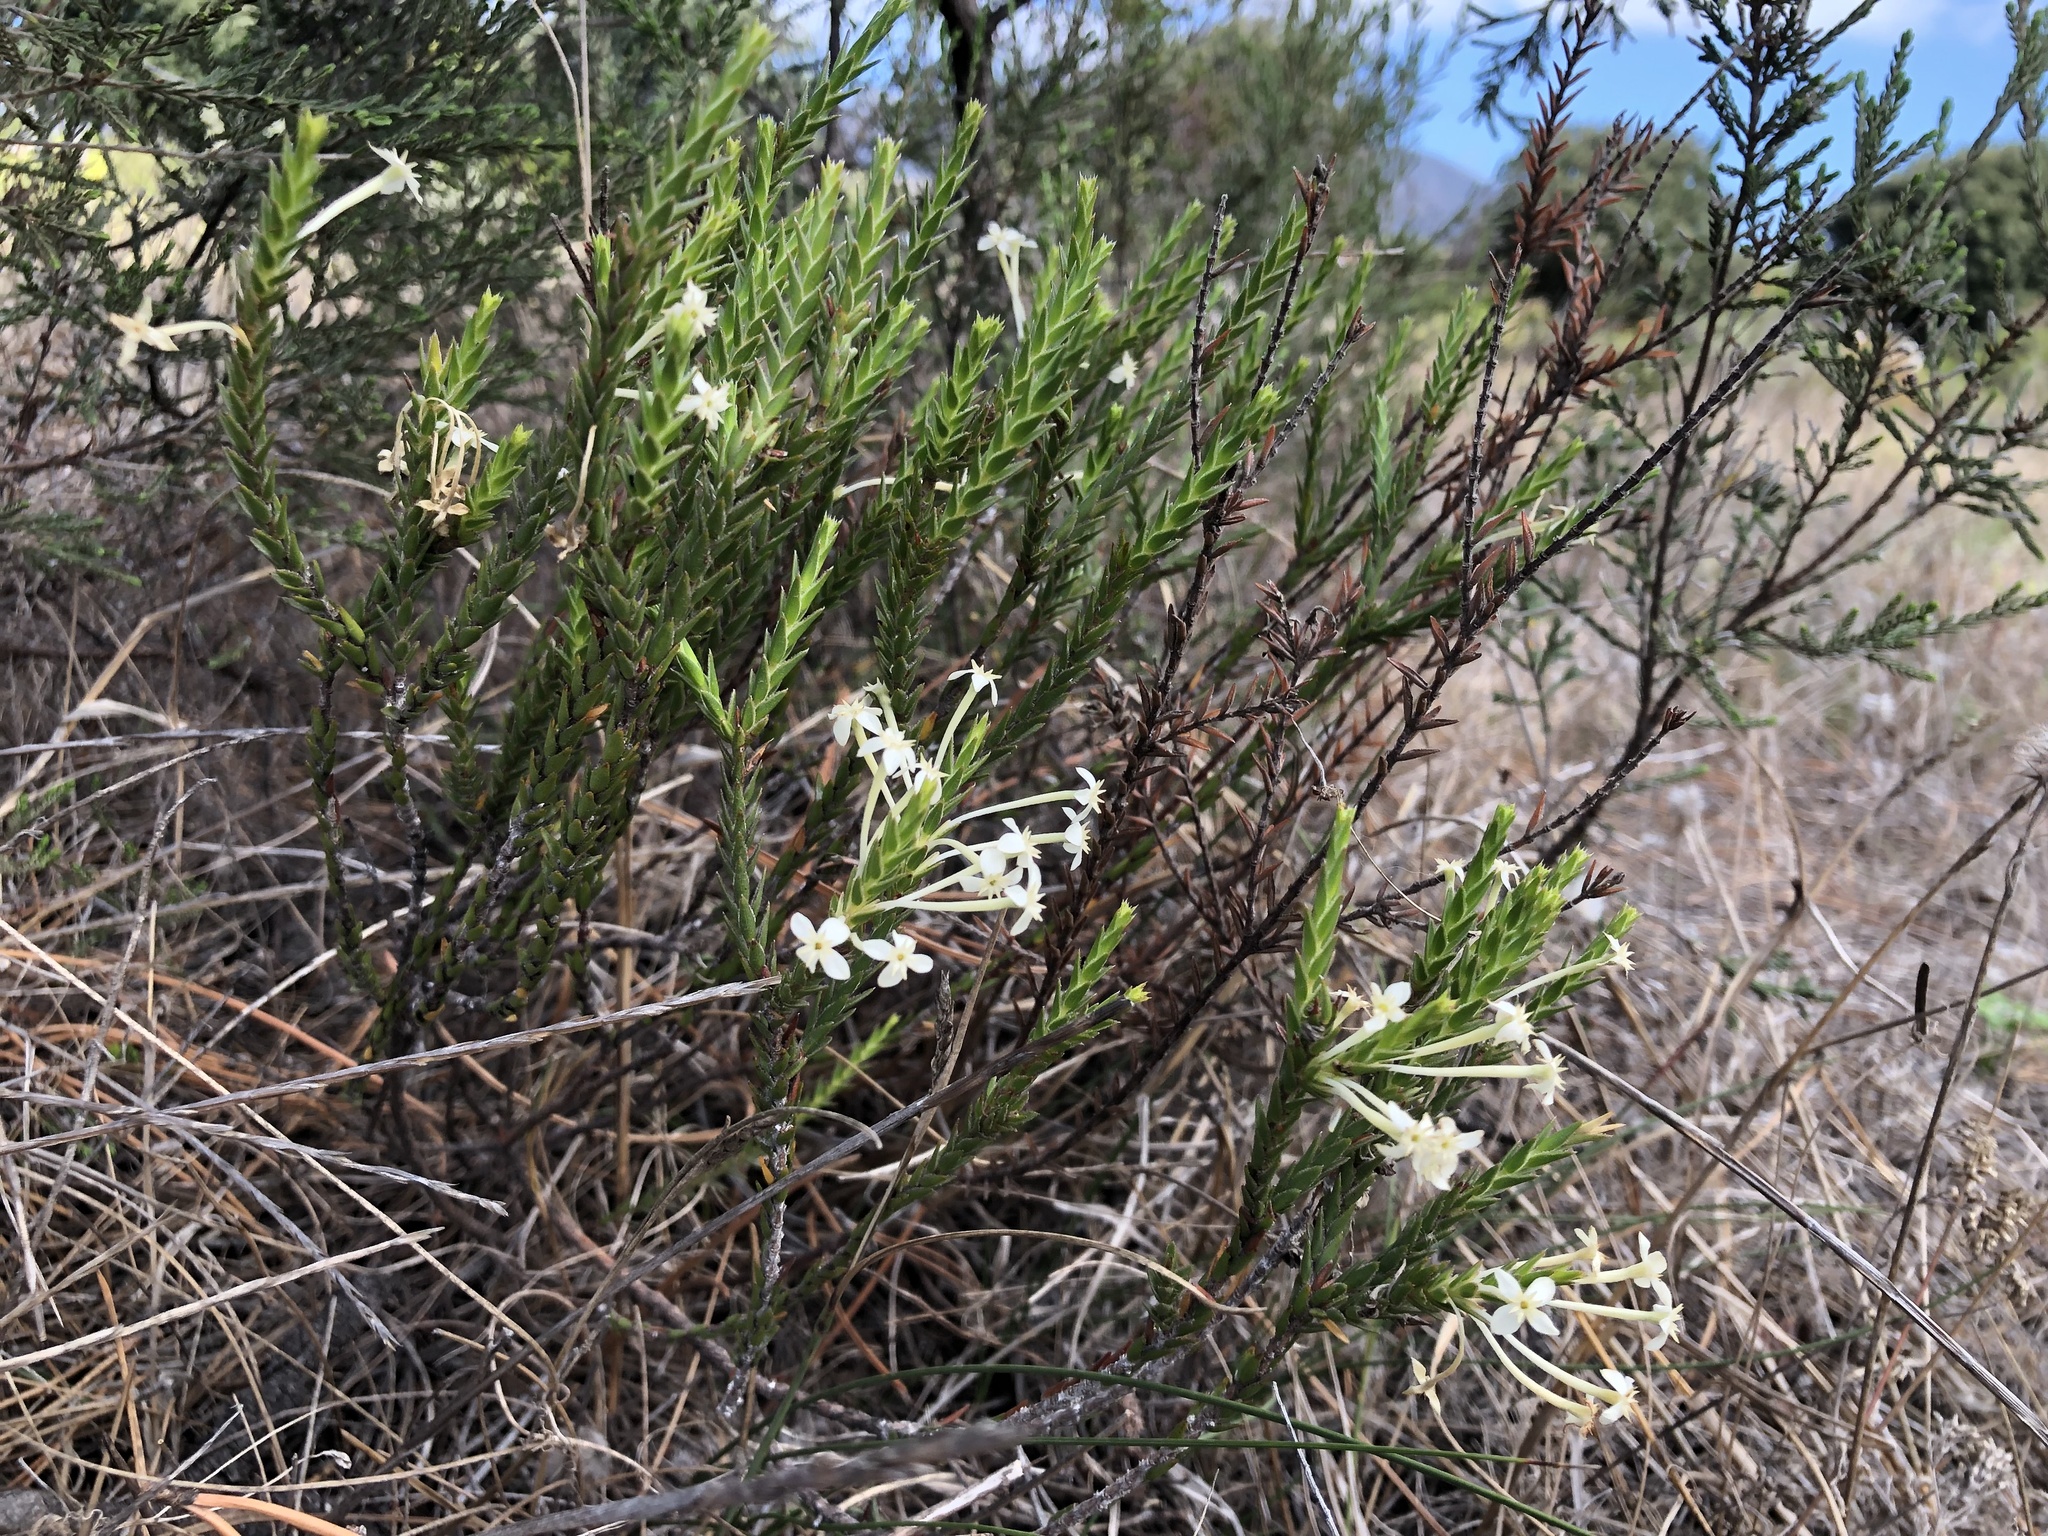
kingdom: Plantae
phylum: Tracheophyta
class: Magnoliopsida
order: Malvales
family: Thymelaeaceae
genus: Struthiola
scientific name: Struthiola ciliata
